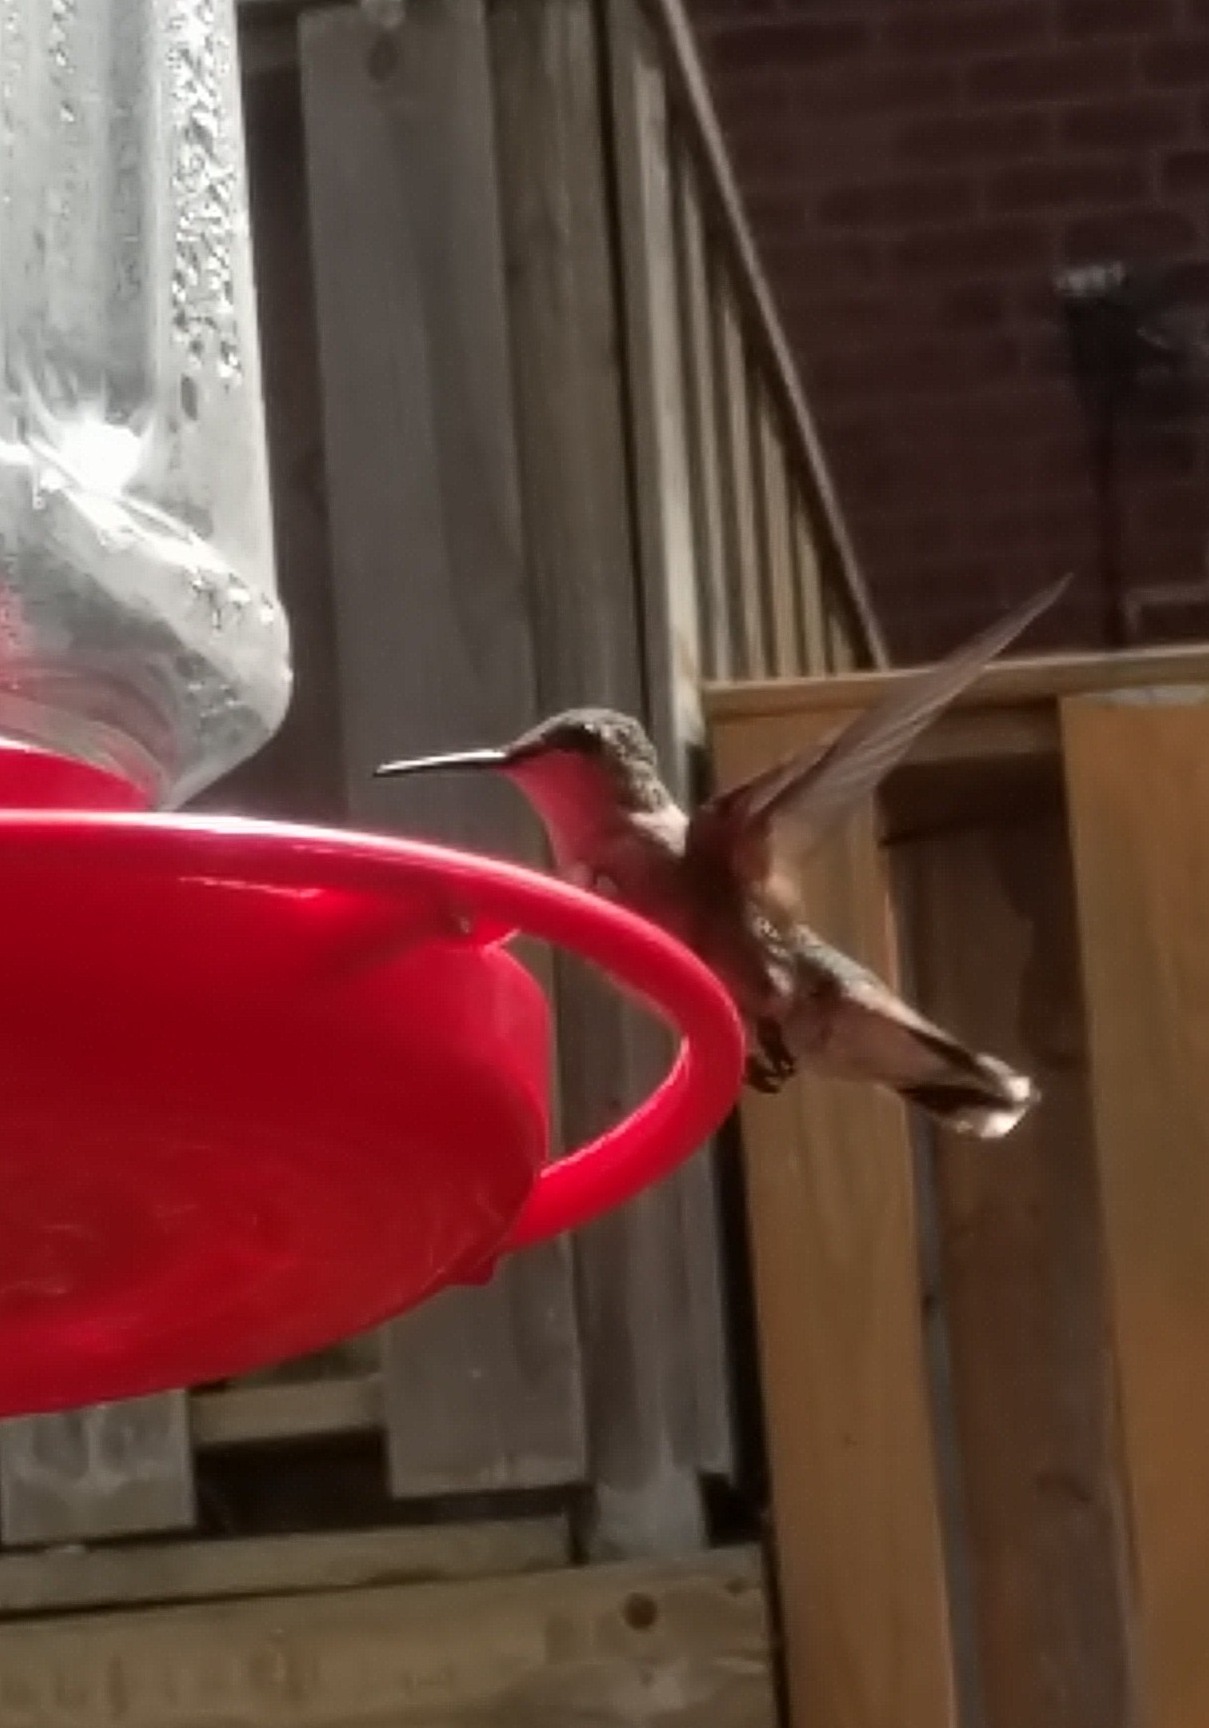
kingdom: Animalia
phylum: Chordata
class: Aves
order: Apodiformes
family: Trochilidae
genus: Archilochus
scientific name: Archilochus colubris
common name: Ruby-throated hummingbird
